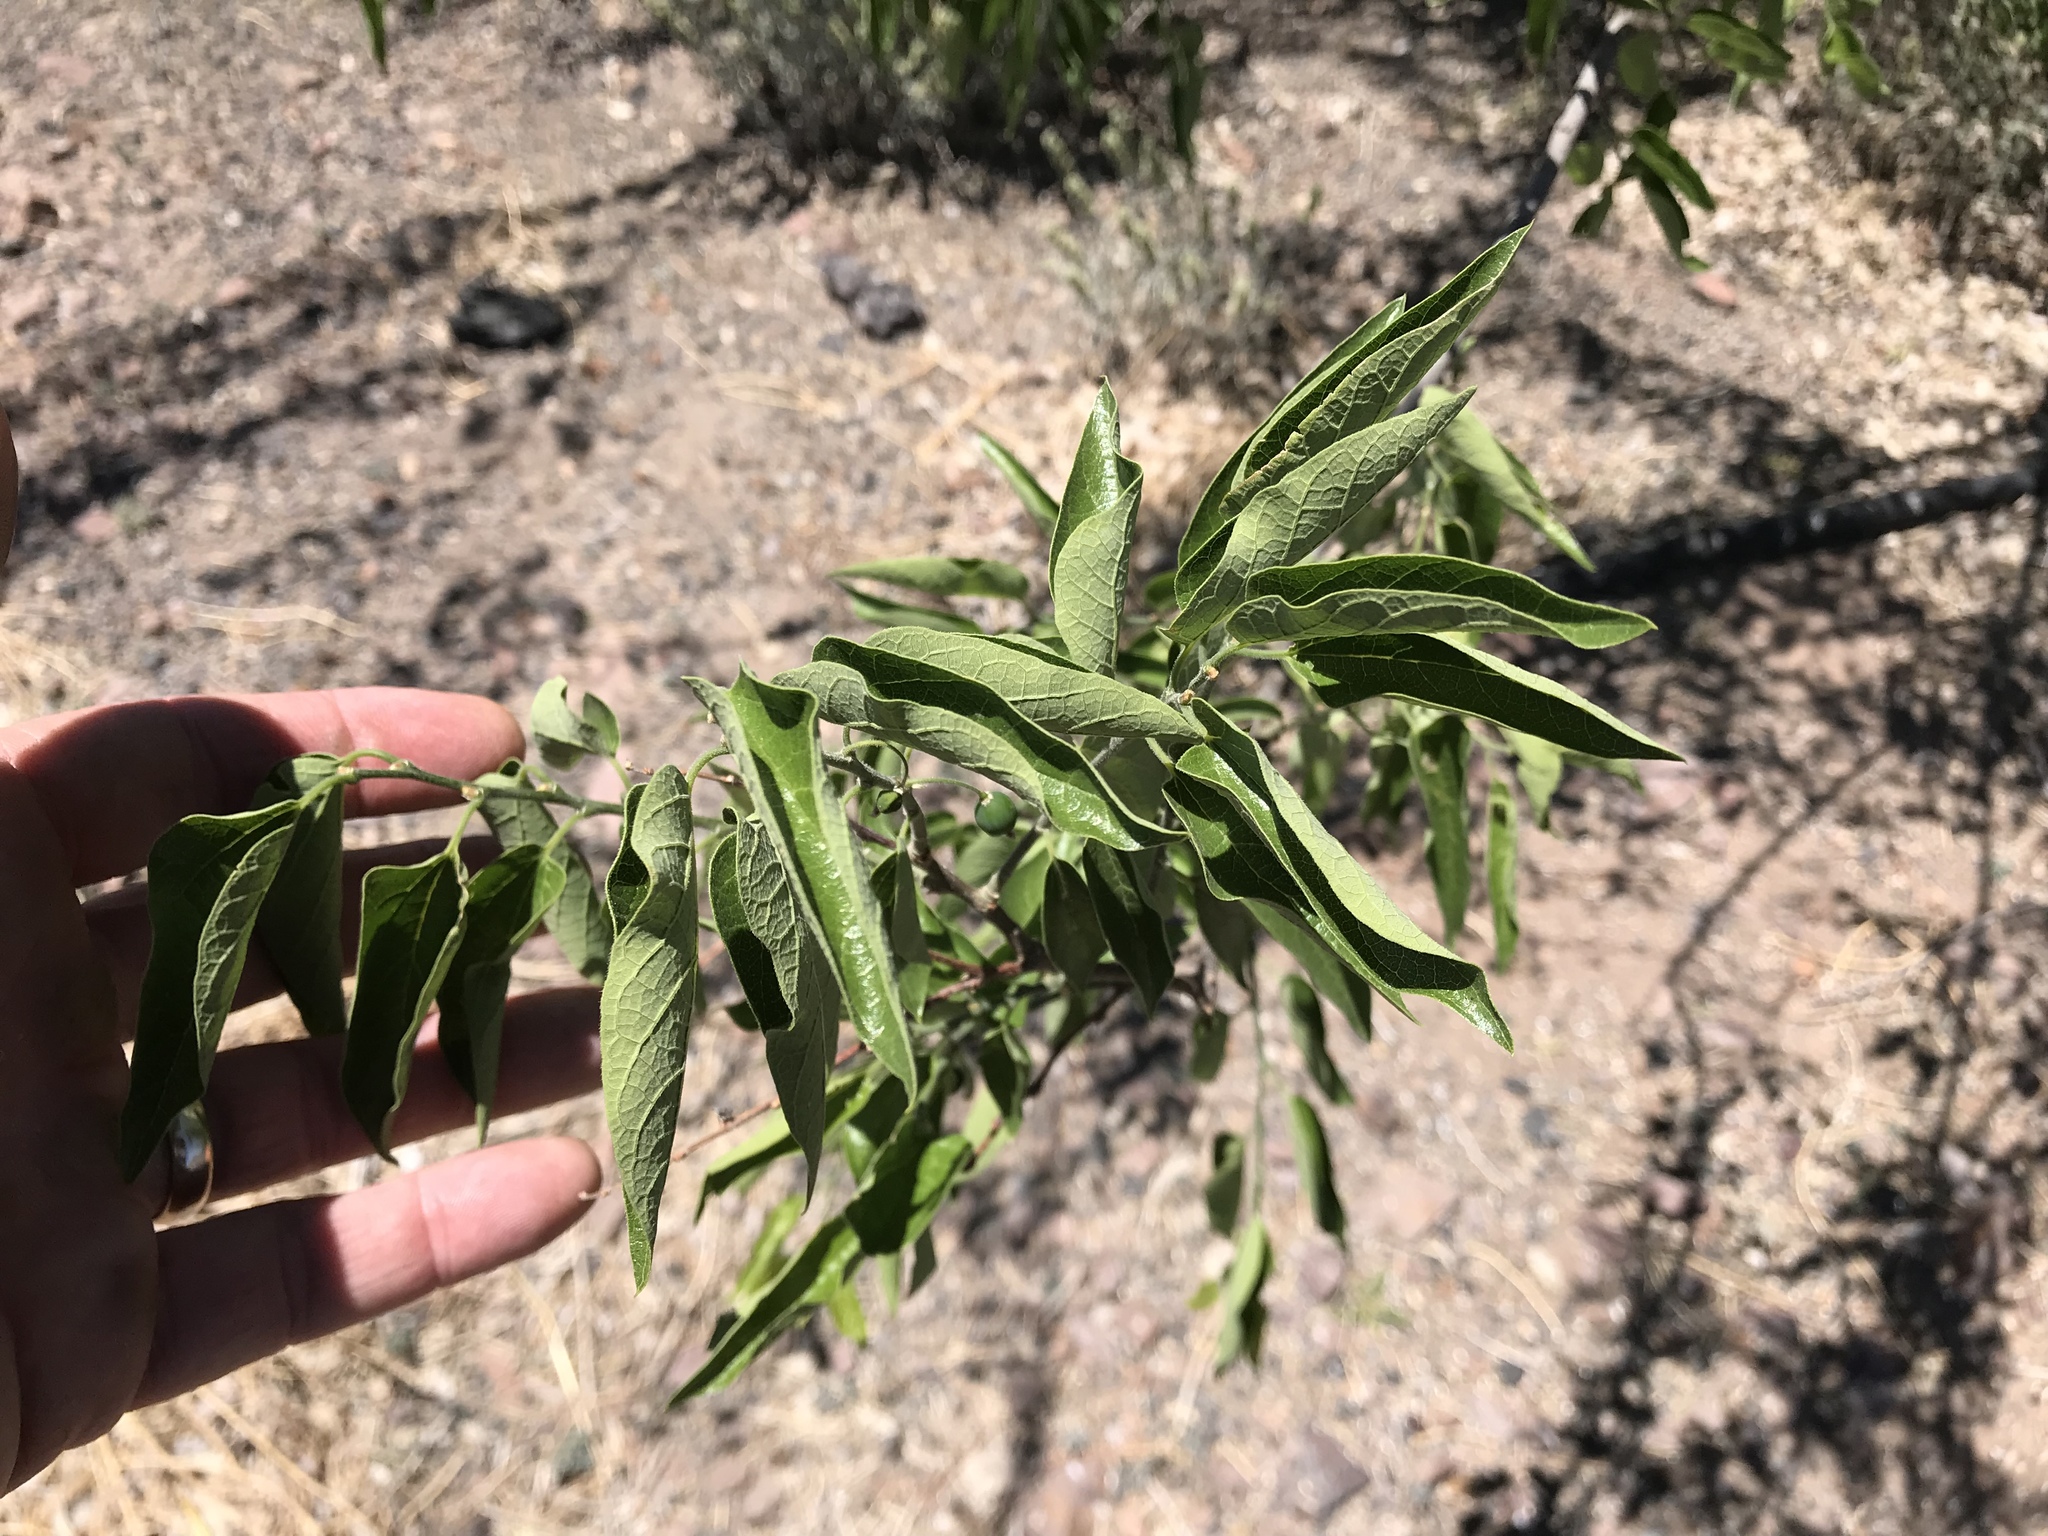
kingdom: Plantae
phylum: Tracheophyta
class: Magnoliopsida
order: Rosales
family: Cannabaceae
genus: Celtis
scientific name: Celtis reticulata
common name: Netleaf hackberry
